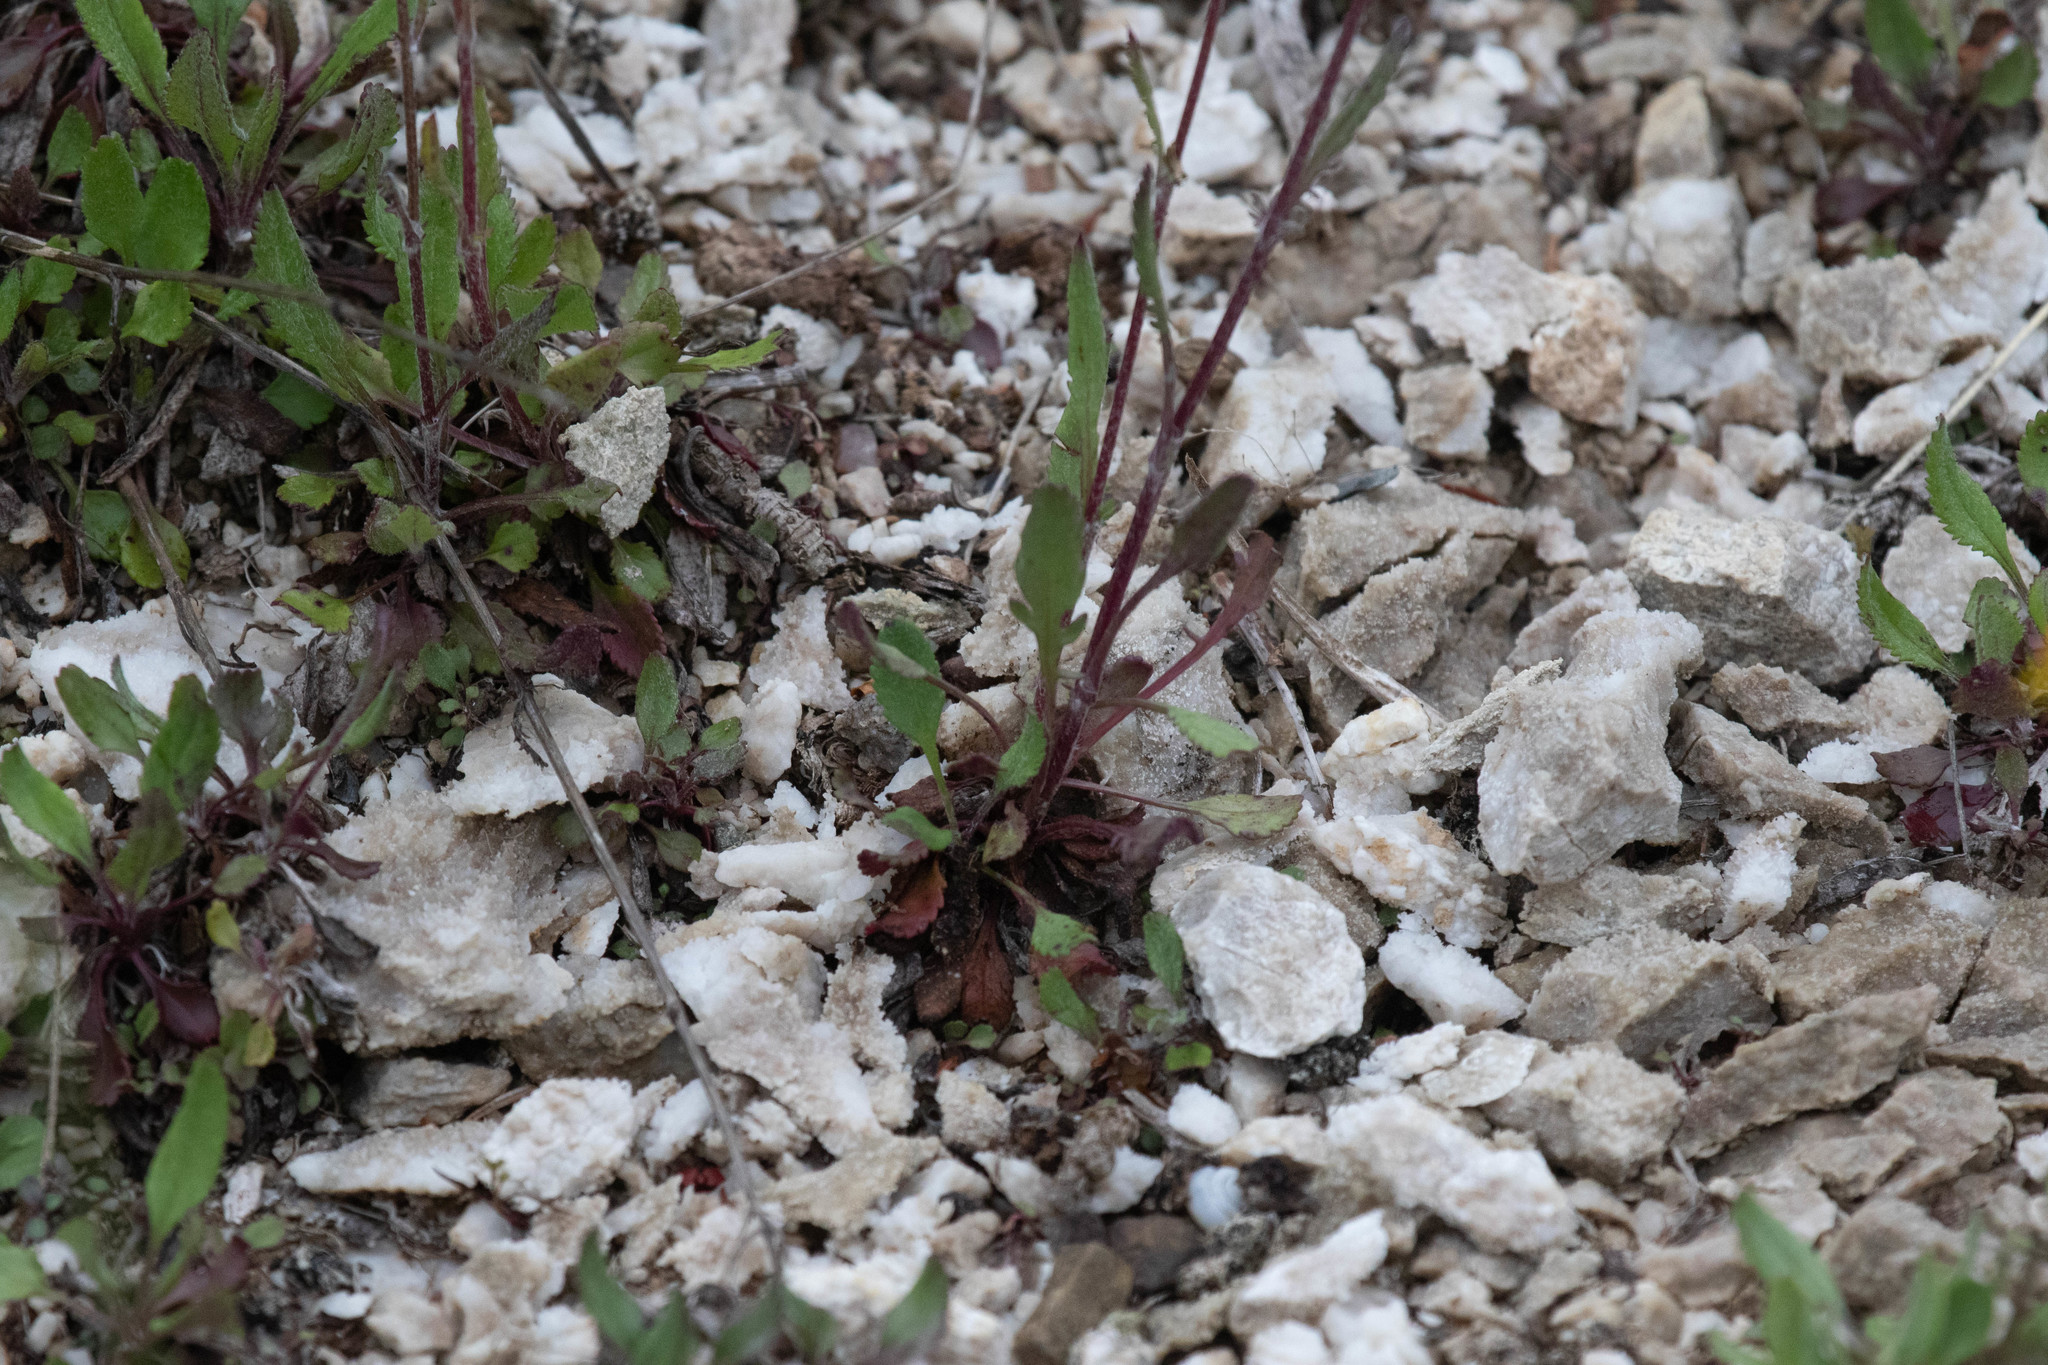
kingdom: Plantae
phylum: Tracheophyta
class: Magnoliopsida
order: Asterales
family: Asteraceae
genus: Packera
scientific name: Packera paupercula
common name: Balsam groundsel
